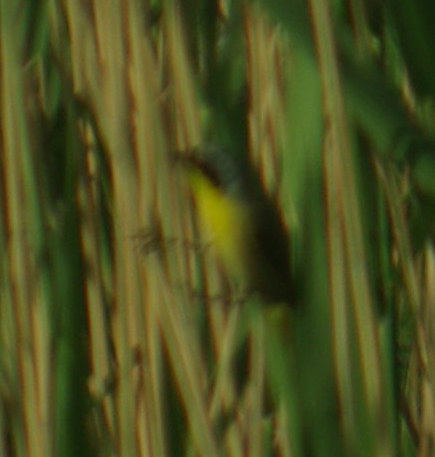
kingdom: Animalia
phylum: Chordata
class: Aves
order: Passeriformes
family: Parulidae
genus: Geothlypis
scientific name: Geothlypis trichas
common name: Common yellowthroat
